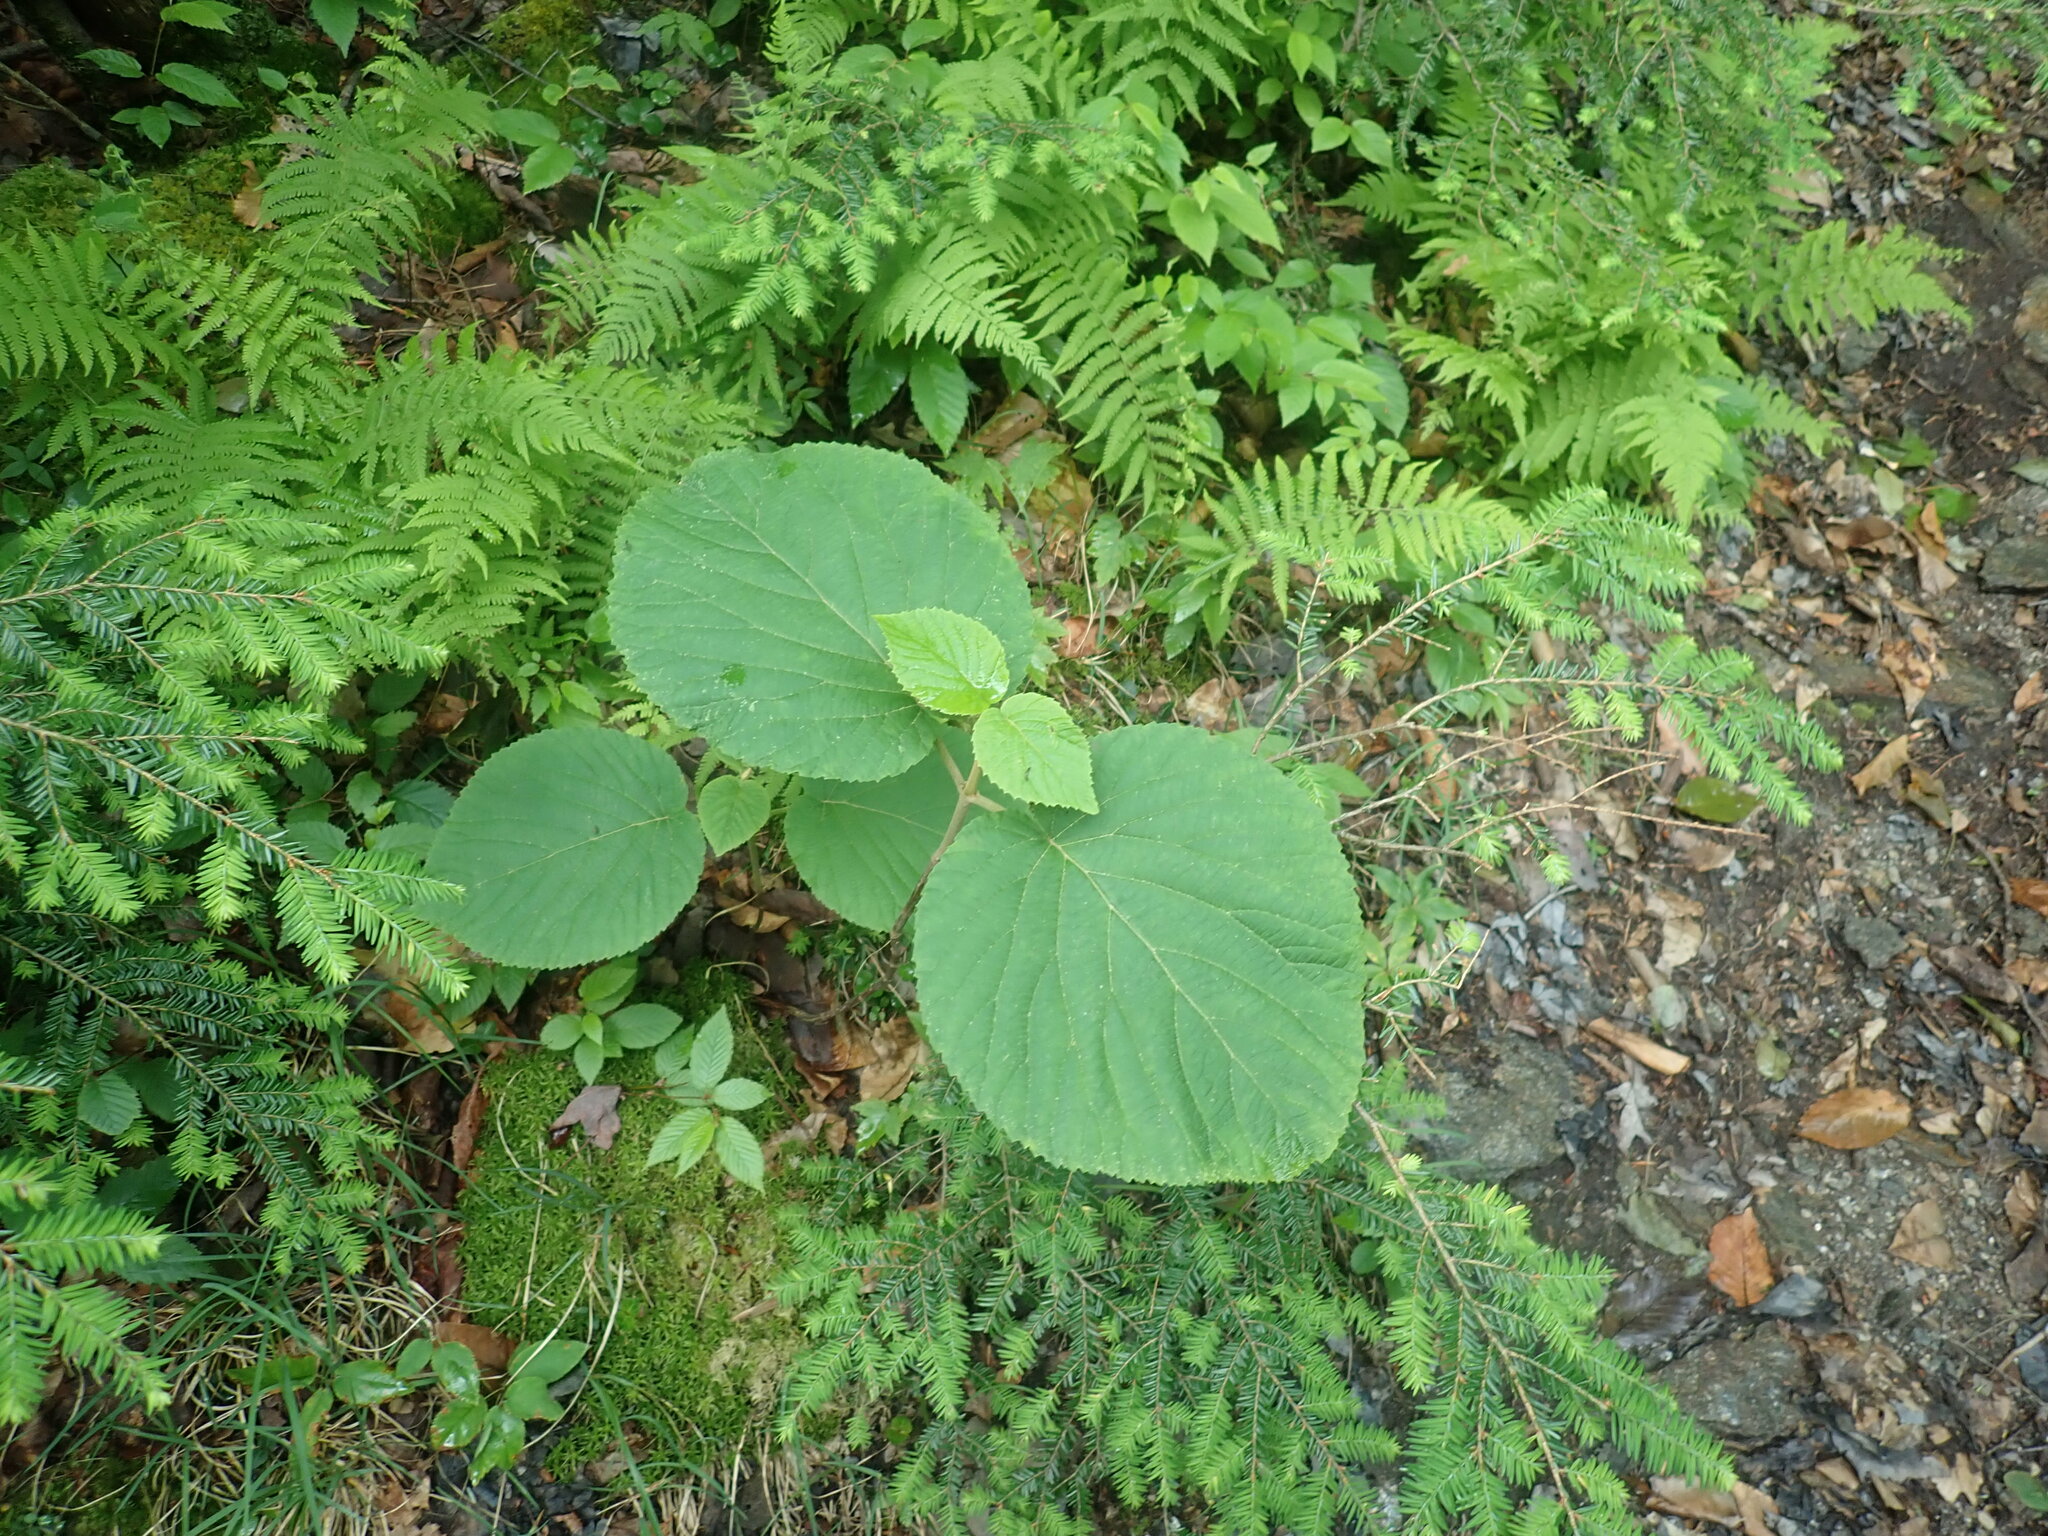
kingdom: Plantae
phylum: Tracheophyta
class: Magnoliopsida
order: Dipsacales
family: Viburnaceae
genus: Viburnum
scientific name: Viburnum lantanoides
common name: Hobblebush
